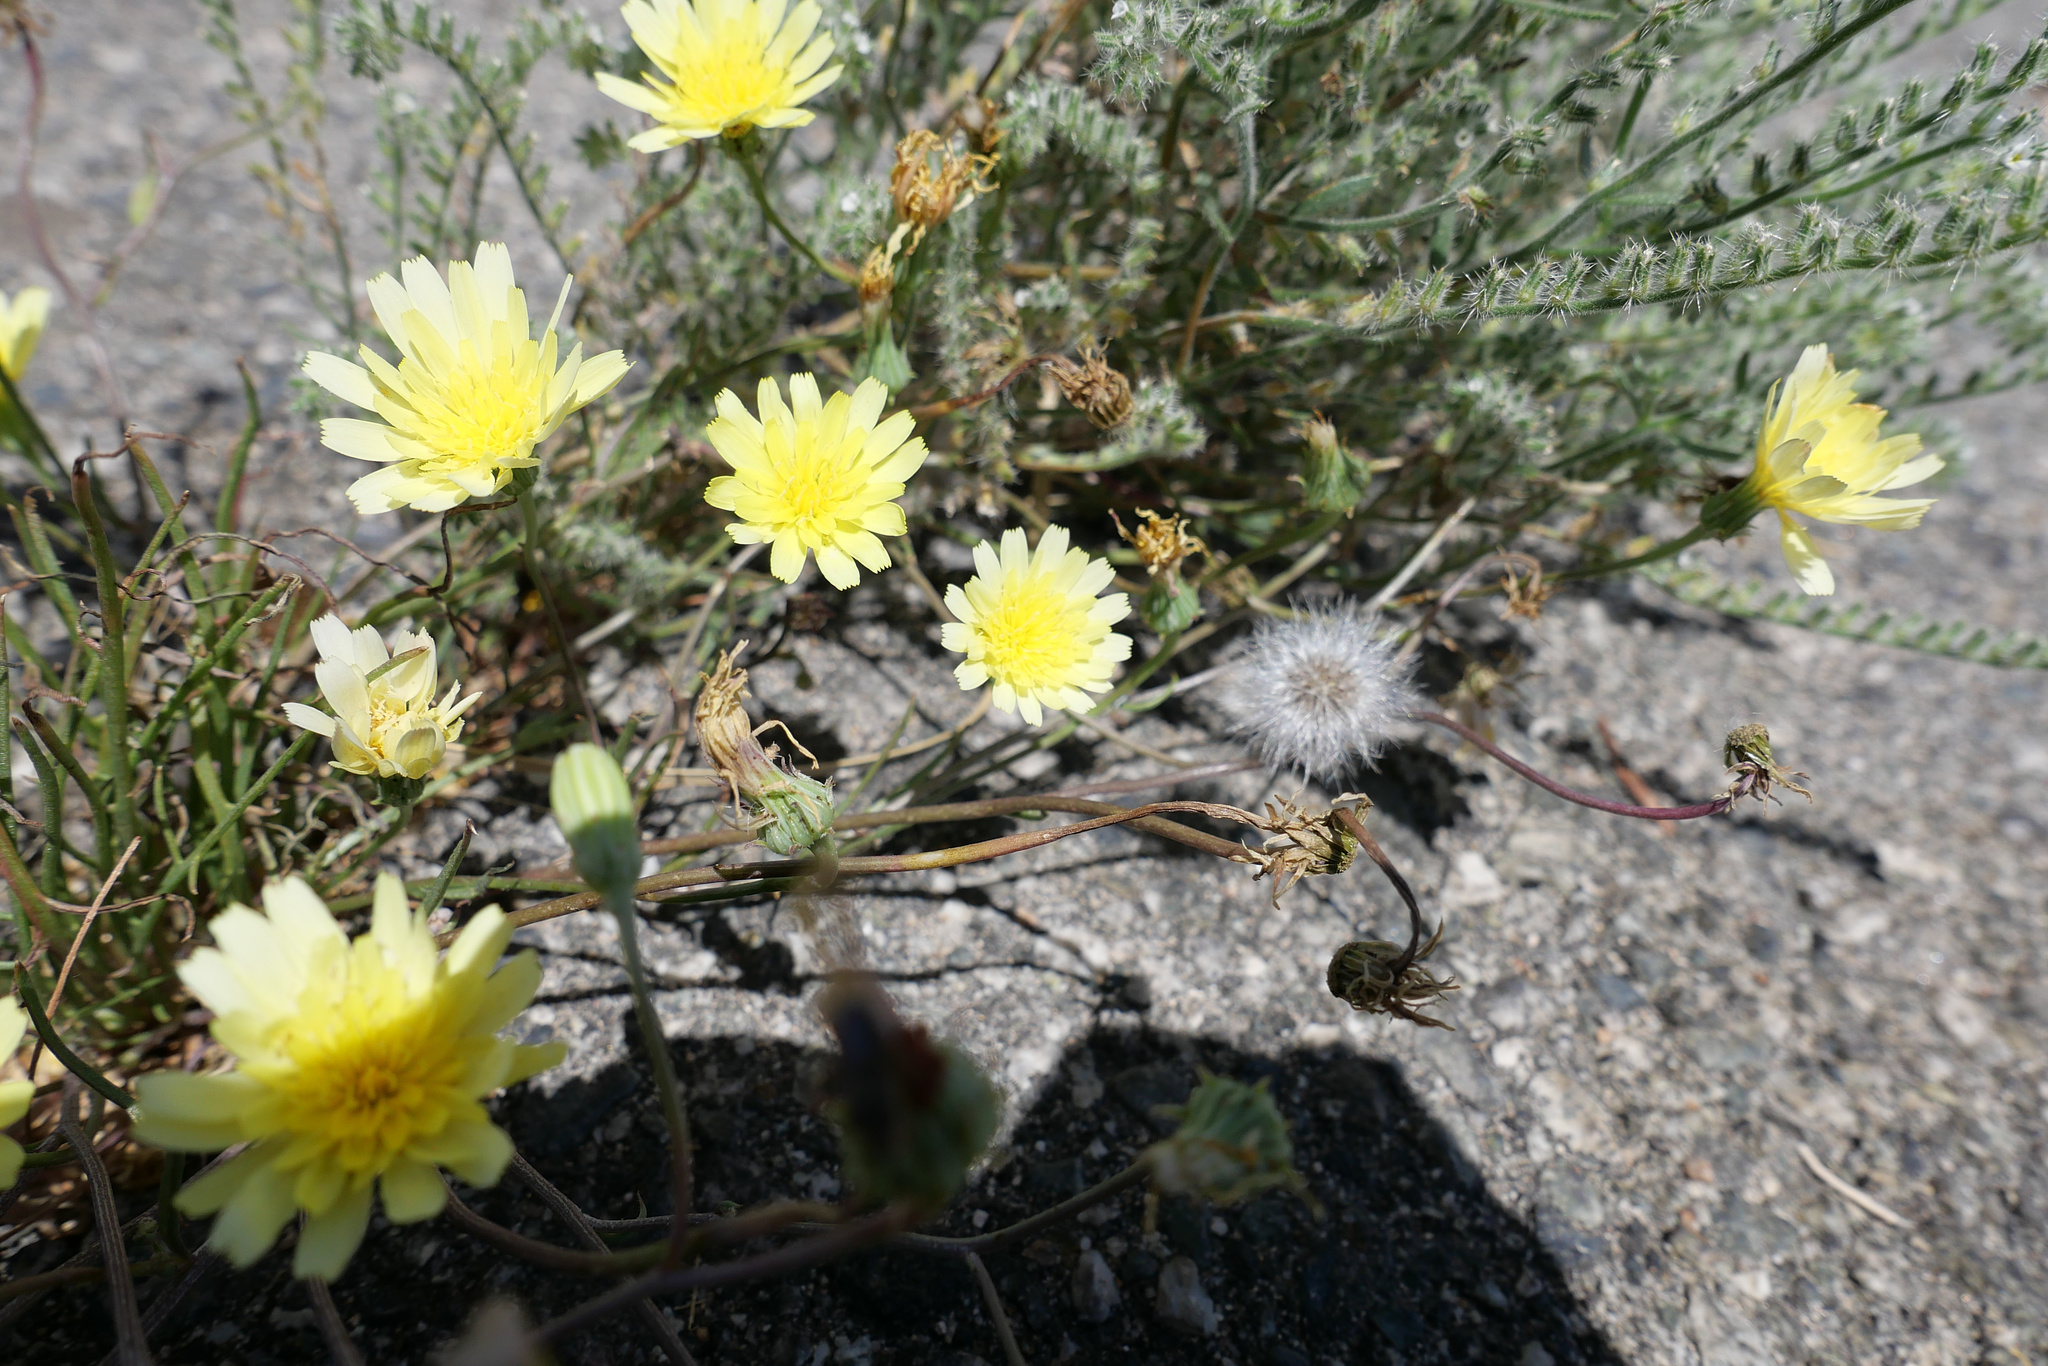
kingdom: Plantae
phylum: Tracheophyta
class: Magnoliopsida
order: Asterales
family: Asteraceae
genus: Malacothrix
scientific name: Malacothrix glabrata
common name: Smooth desert-dandelion
